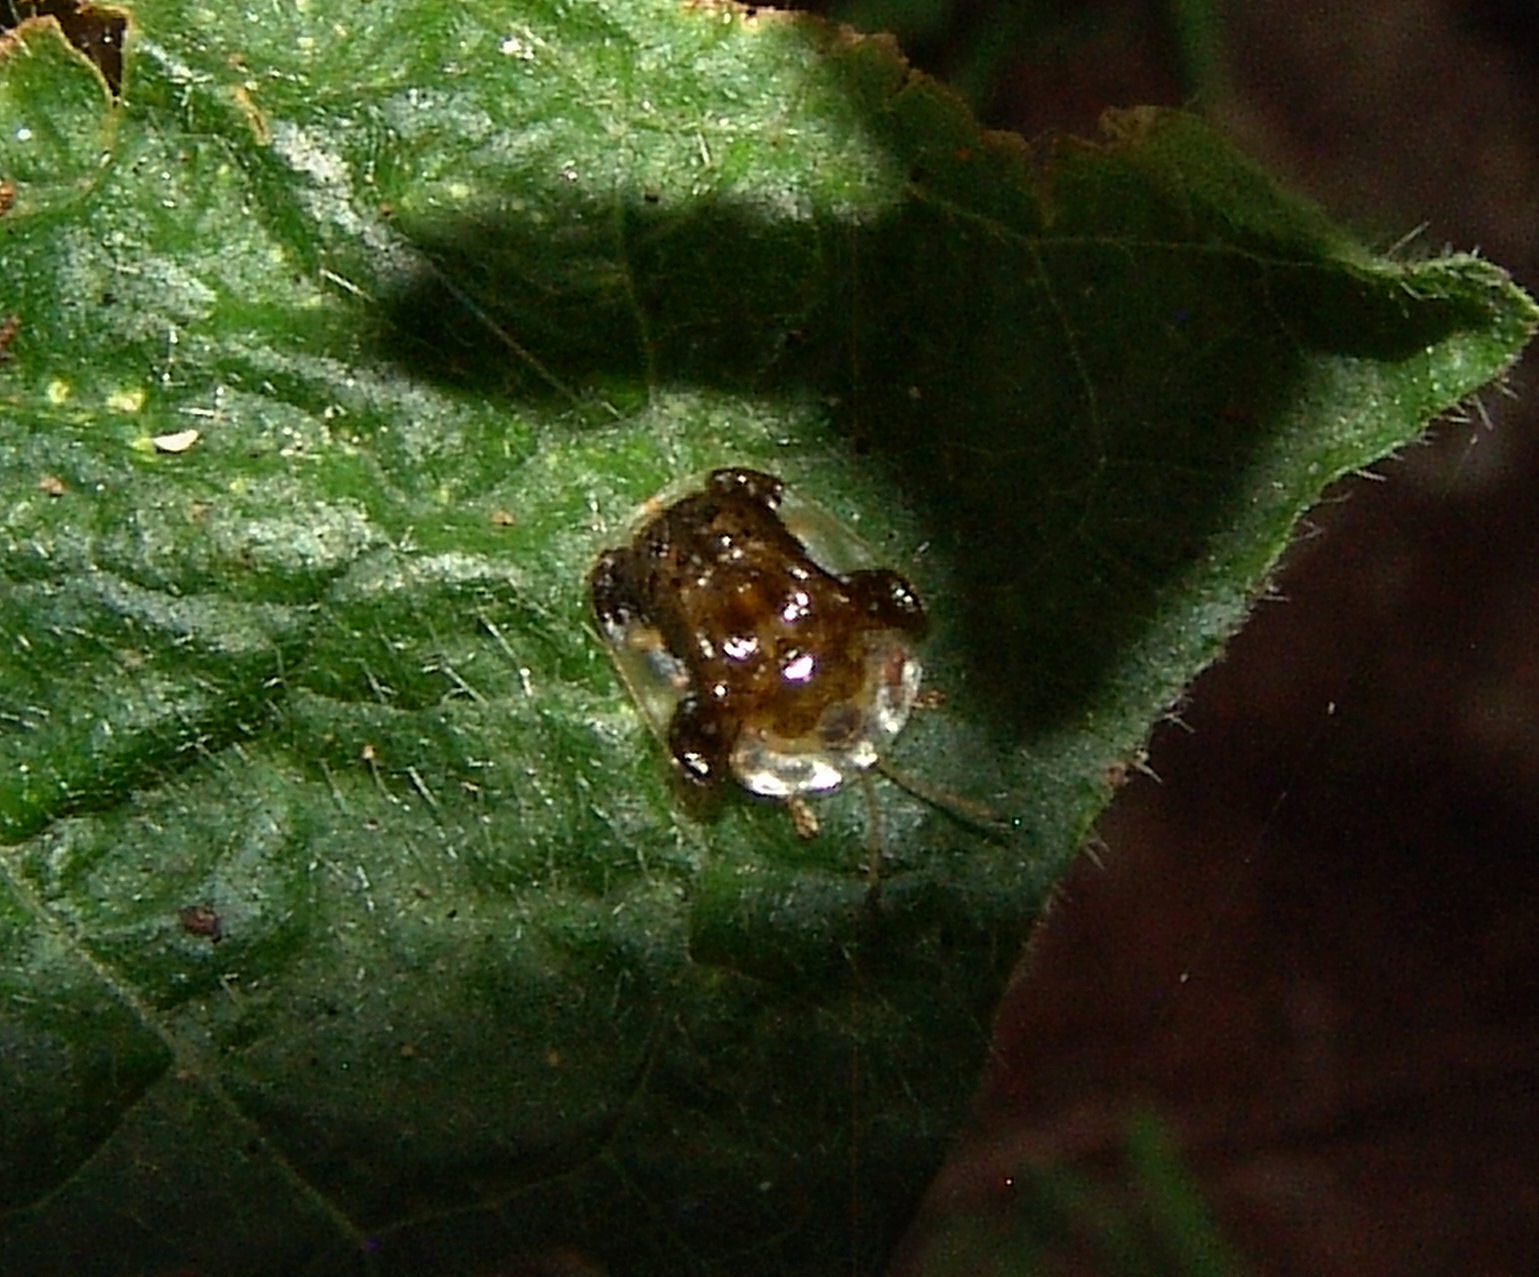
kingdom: Animalia
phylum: Arthropoda
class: Insecta
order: Coleoptera
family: Chrysomelidae
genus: Helocassis
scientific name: Helocassis clavata
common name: Clavate tortoise beetle
